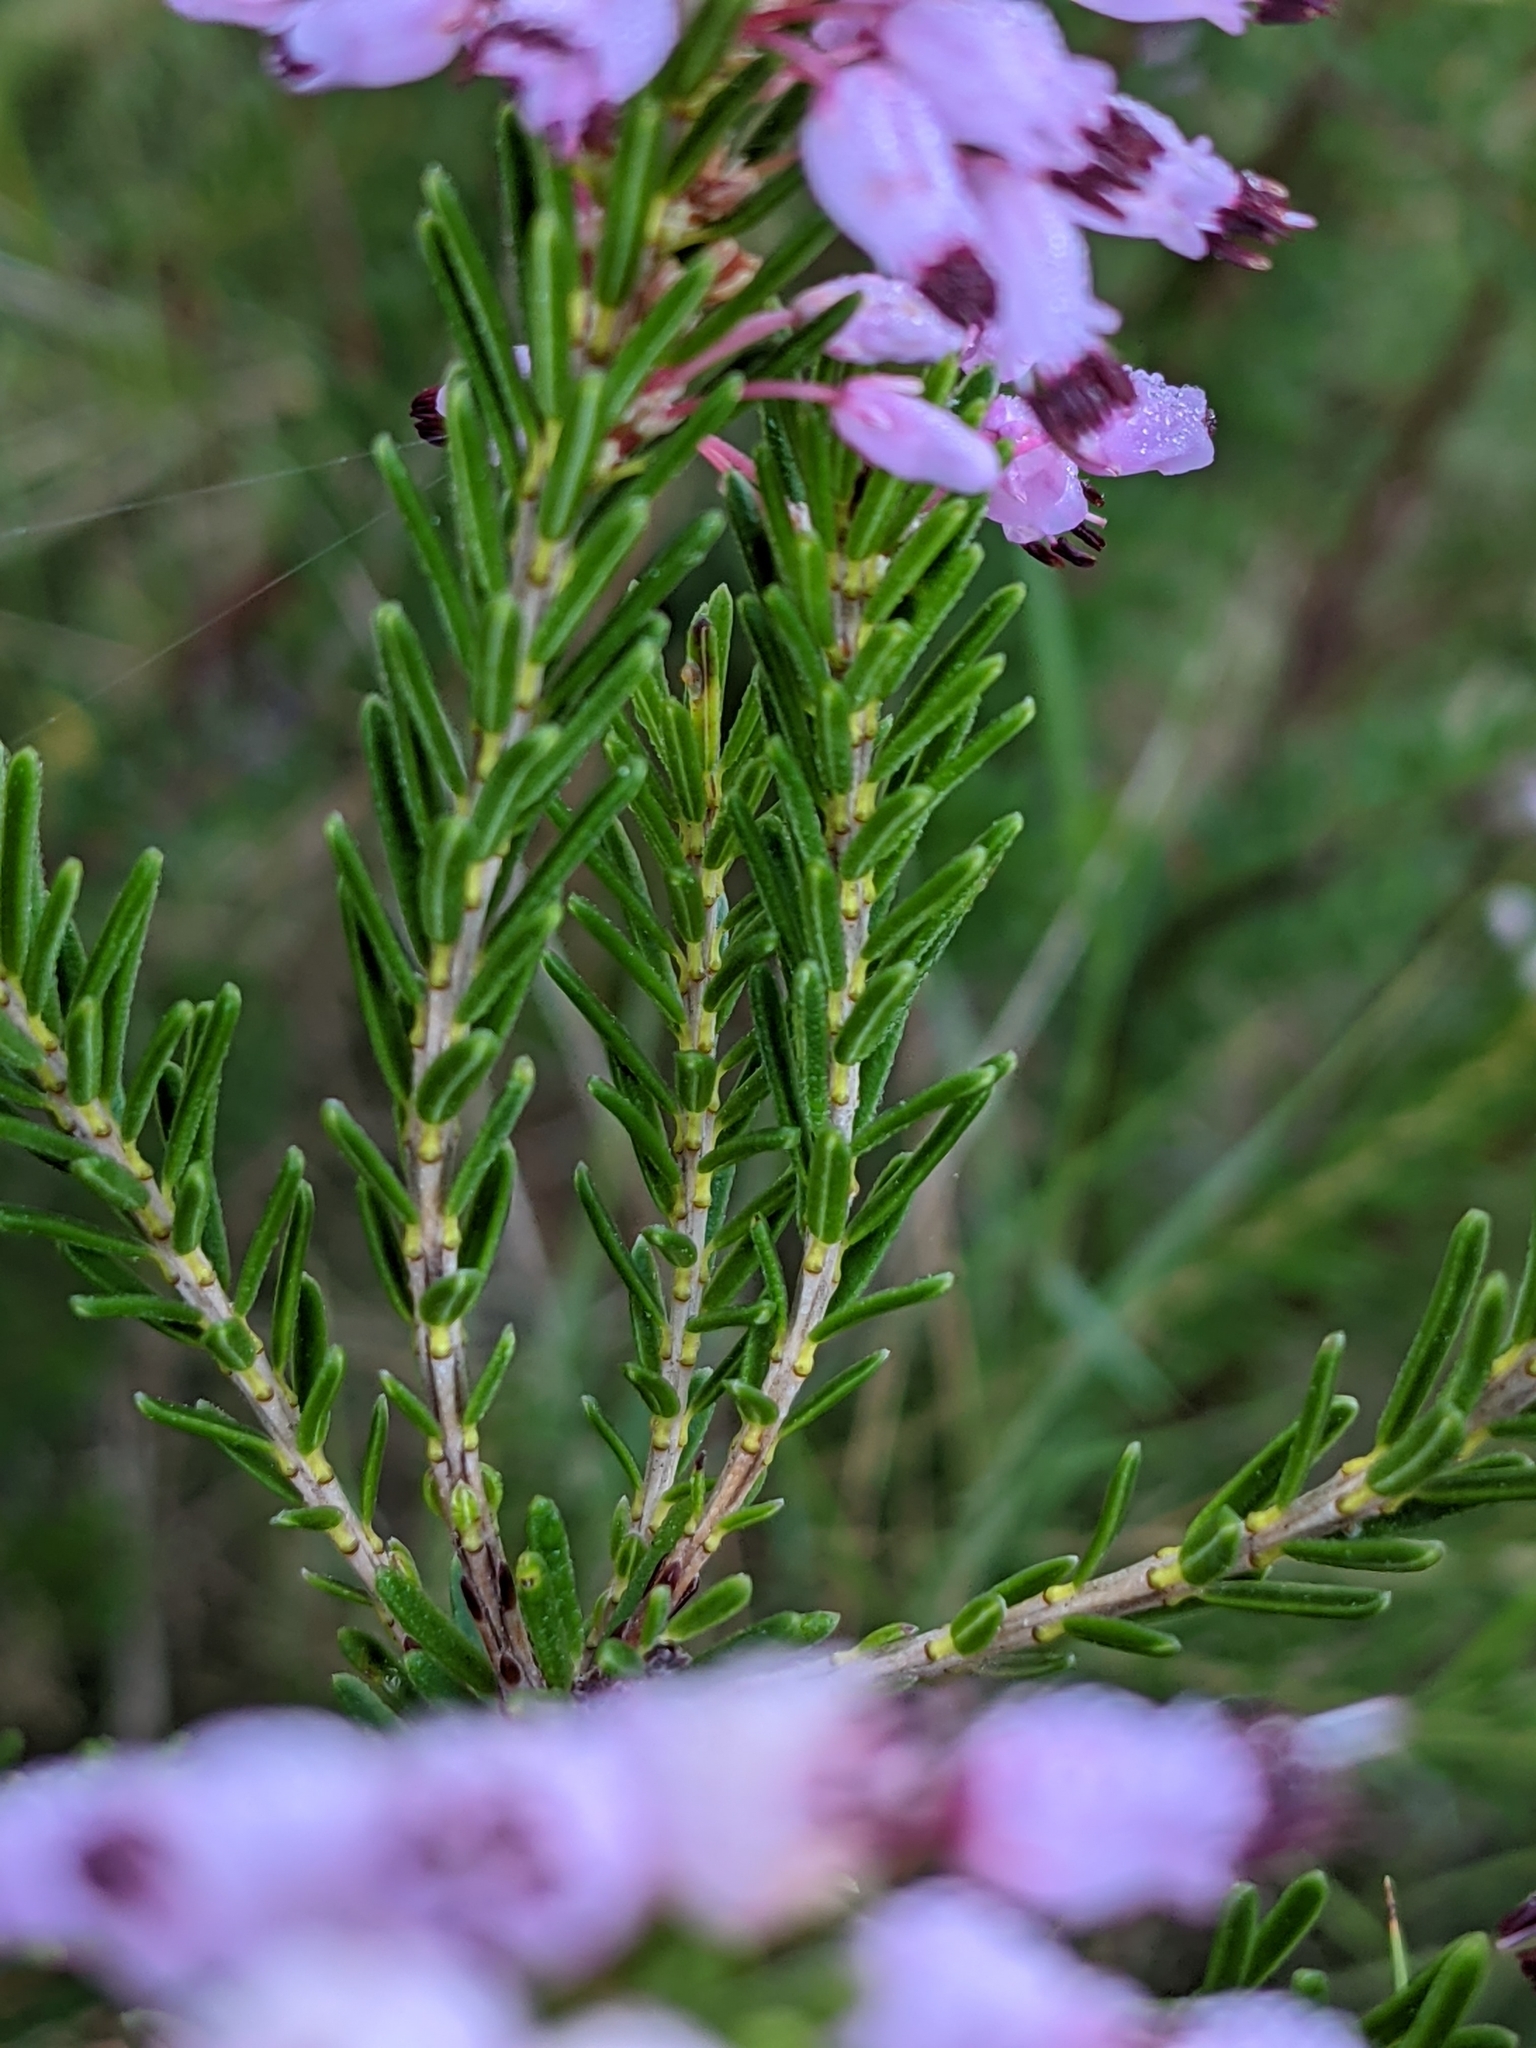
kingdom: Plantae
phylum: Tracheophyta
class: Magnoliopsida
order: Ericales
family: Ericaceae
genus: Erica
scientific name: Erica multiflora
